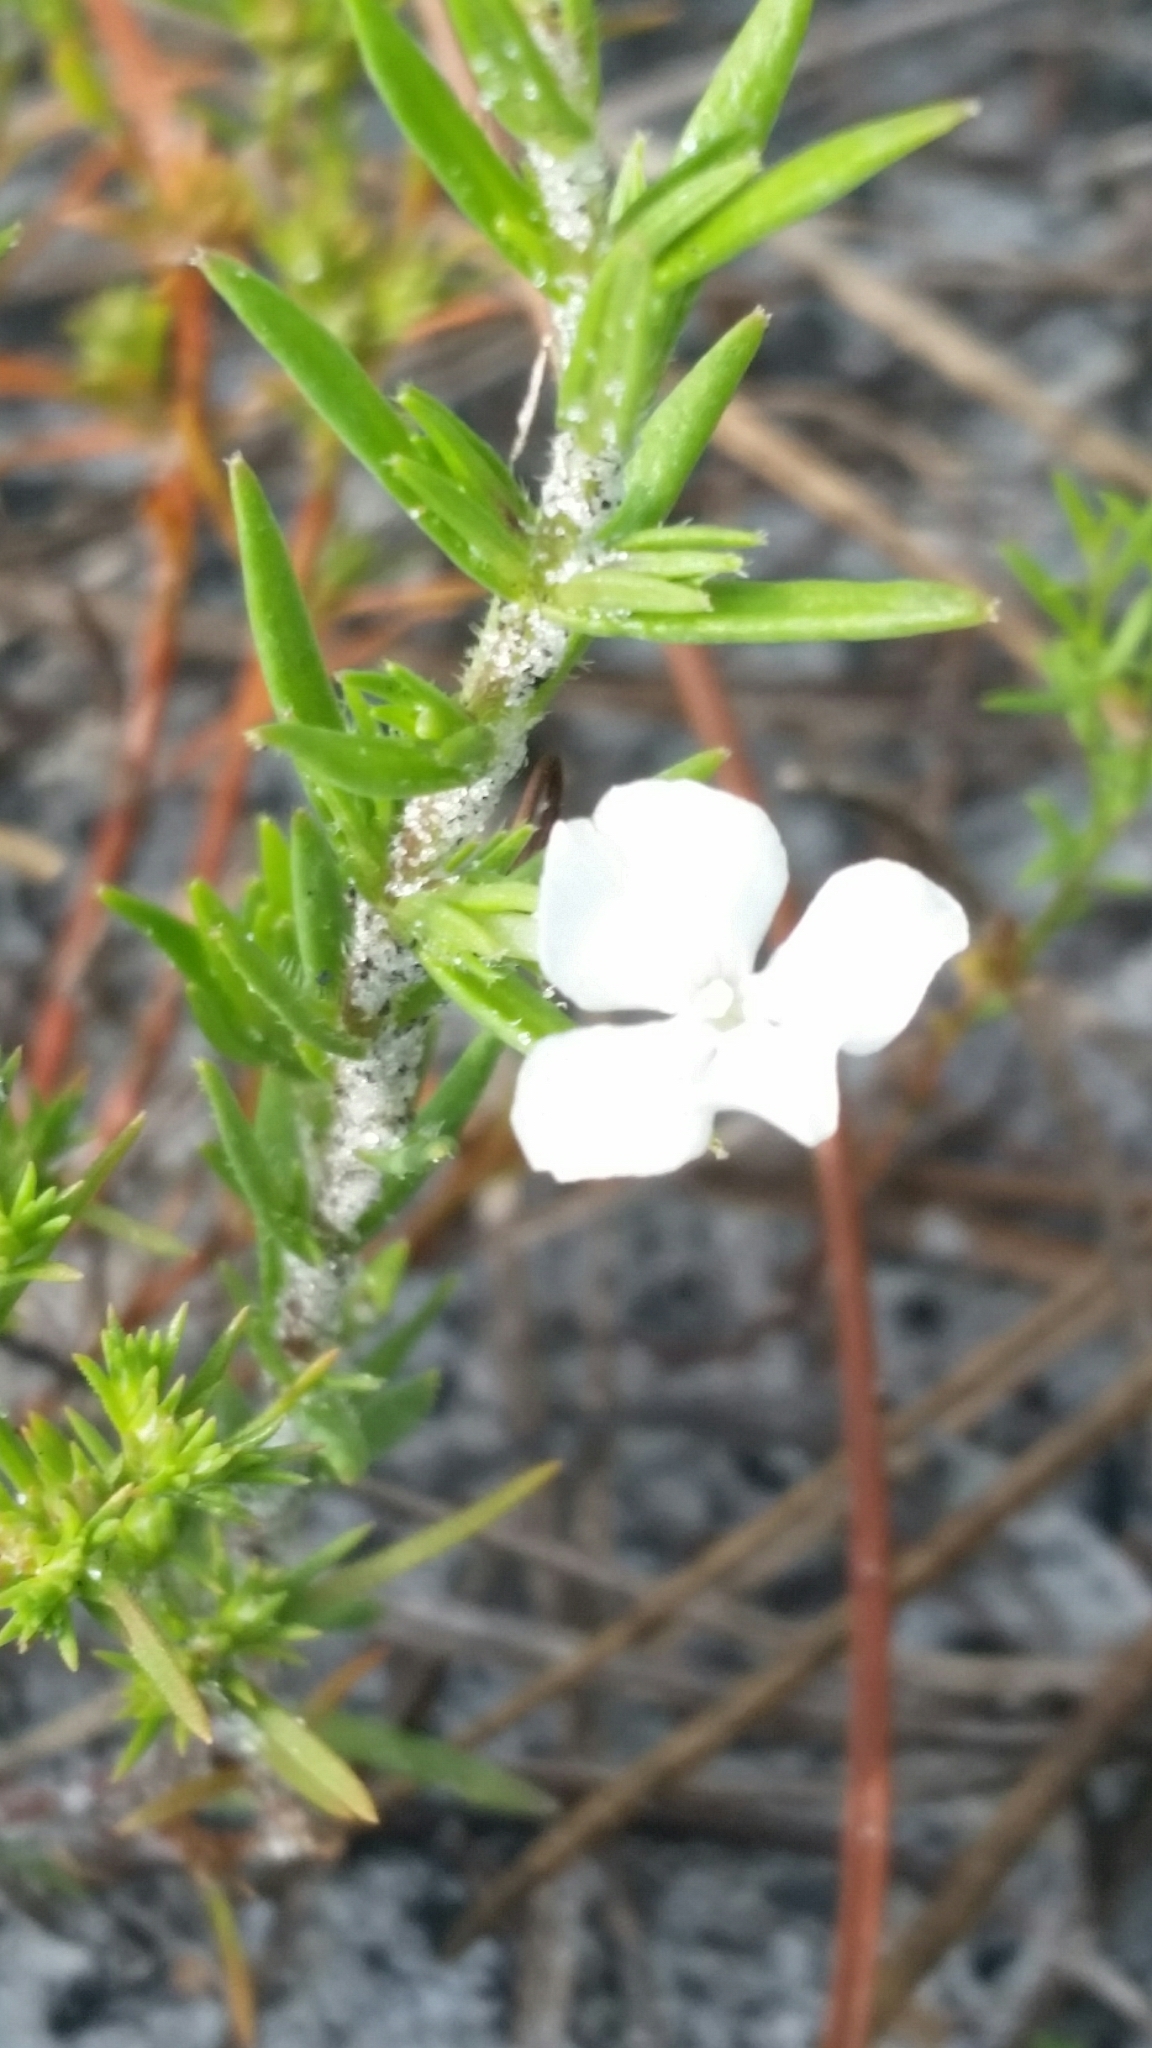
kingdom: Plantae
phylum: Tracheophyta
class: Magnoliopsida
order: Lamiales
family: Plantaginaceae
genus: Gratiola
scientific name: Gratiola hispida
